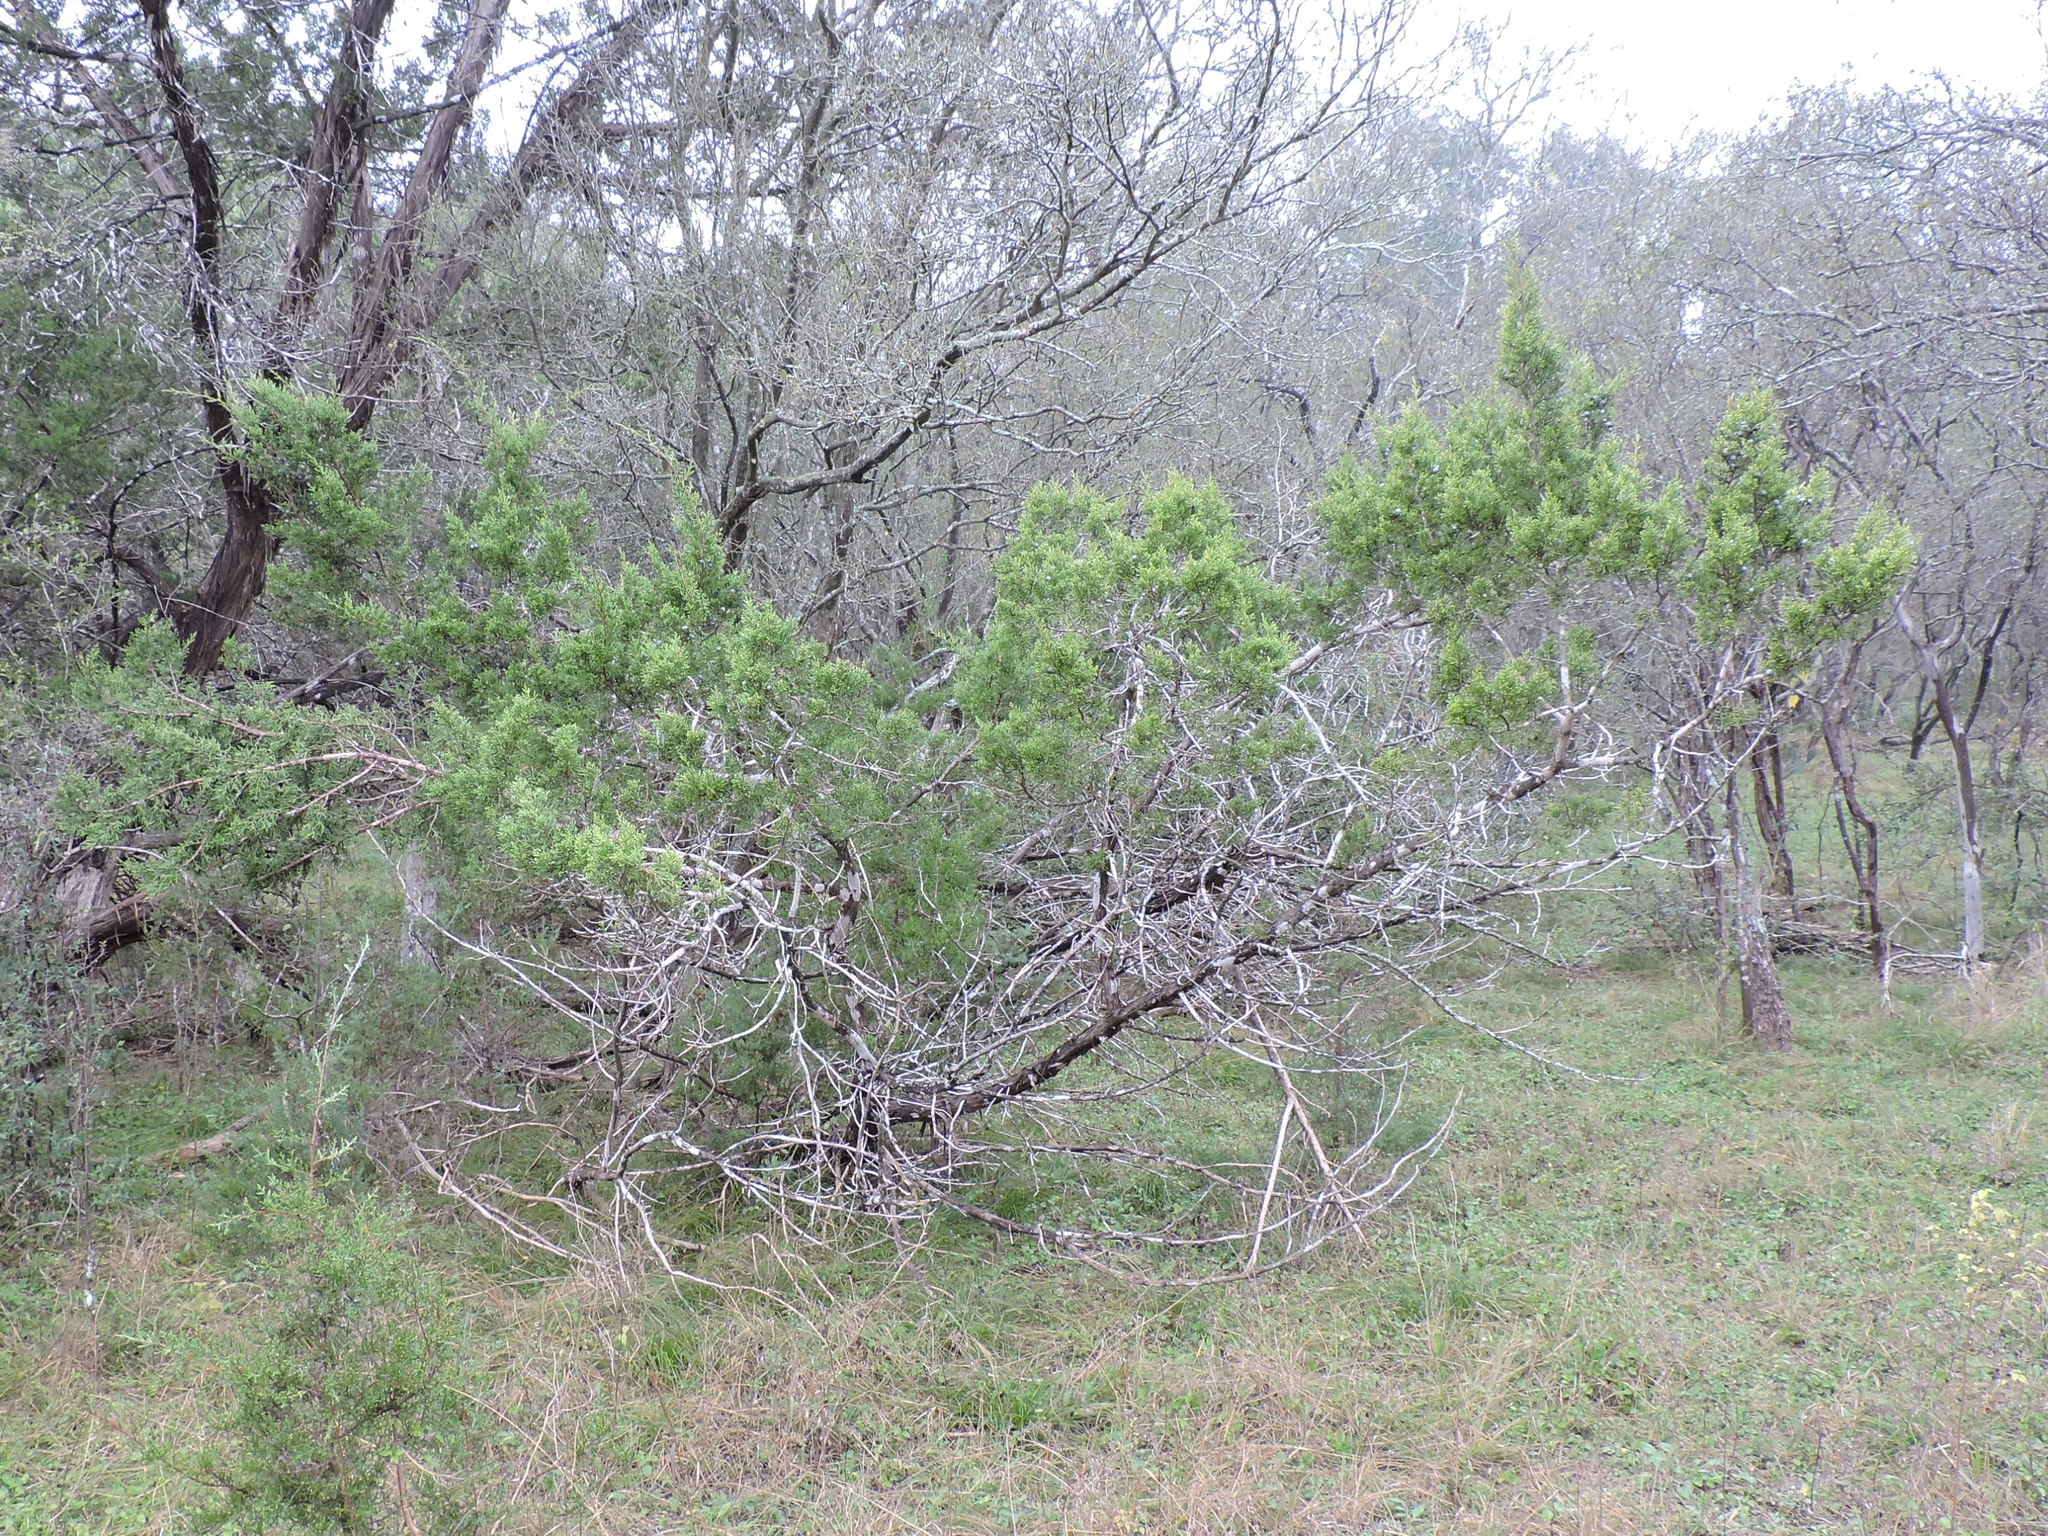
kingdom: Plantae
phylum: Tracheophyta
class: Pinopsida
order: Pinales
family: Cupressaceae
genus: Juniperus
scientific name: Juniperus ashei
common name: Mexican juniper
